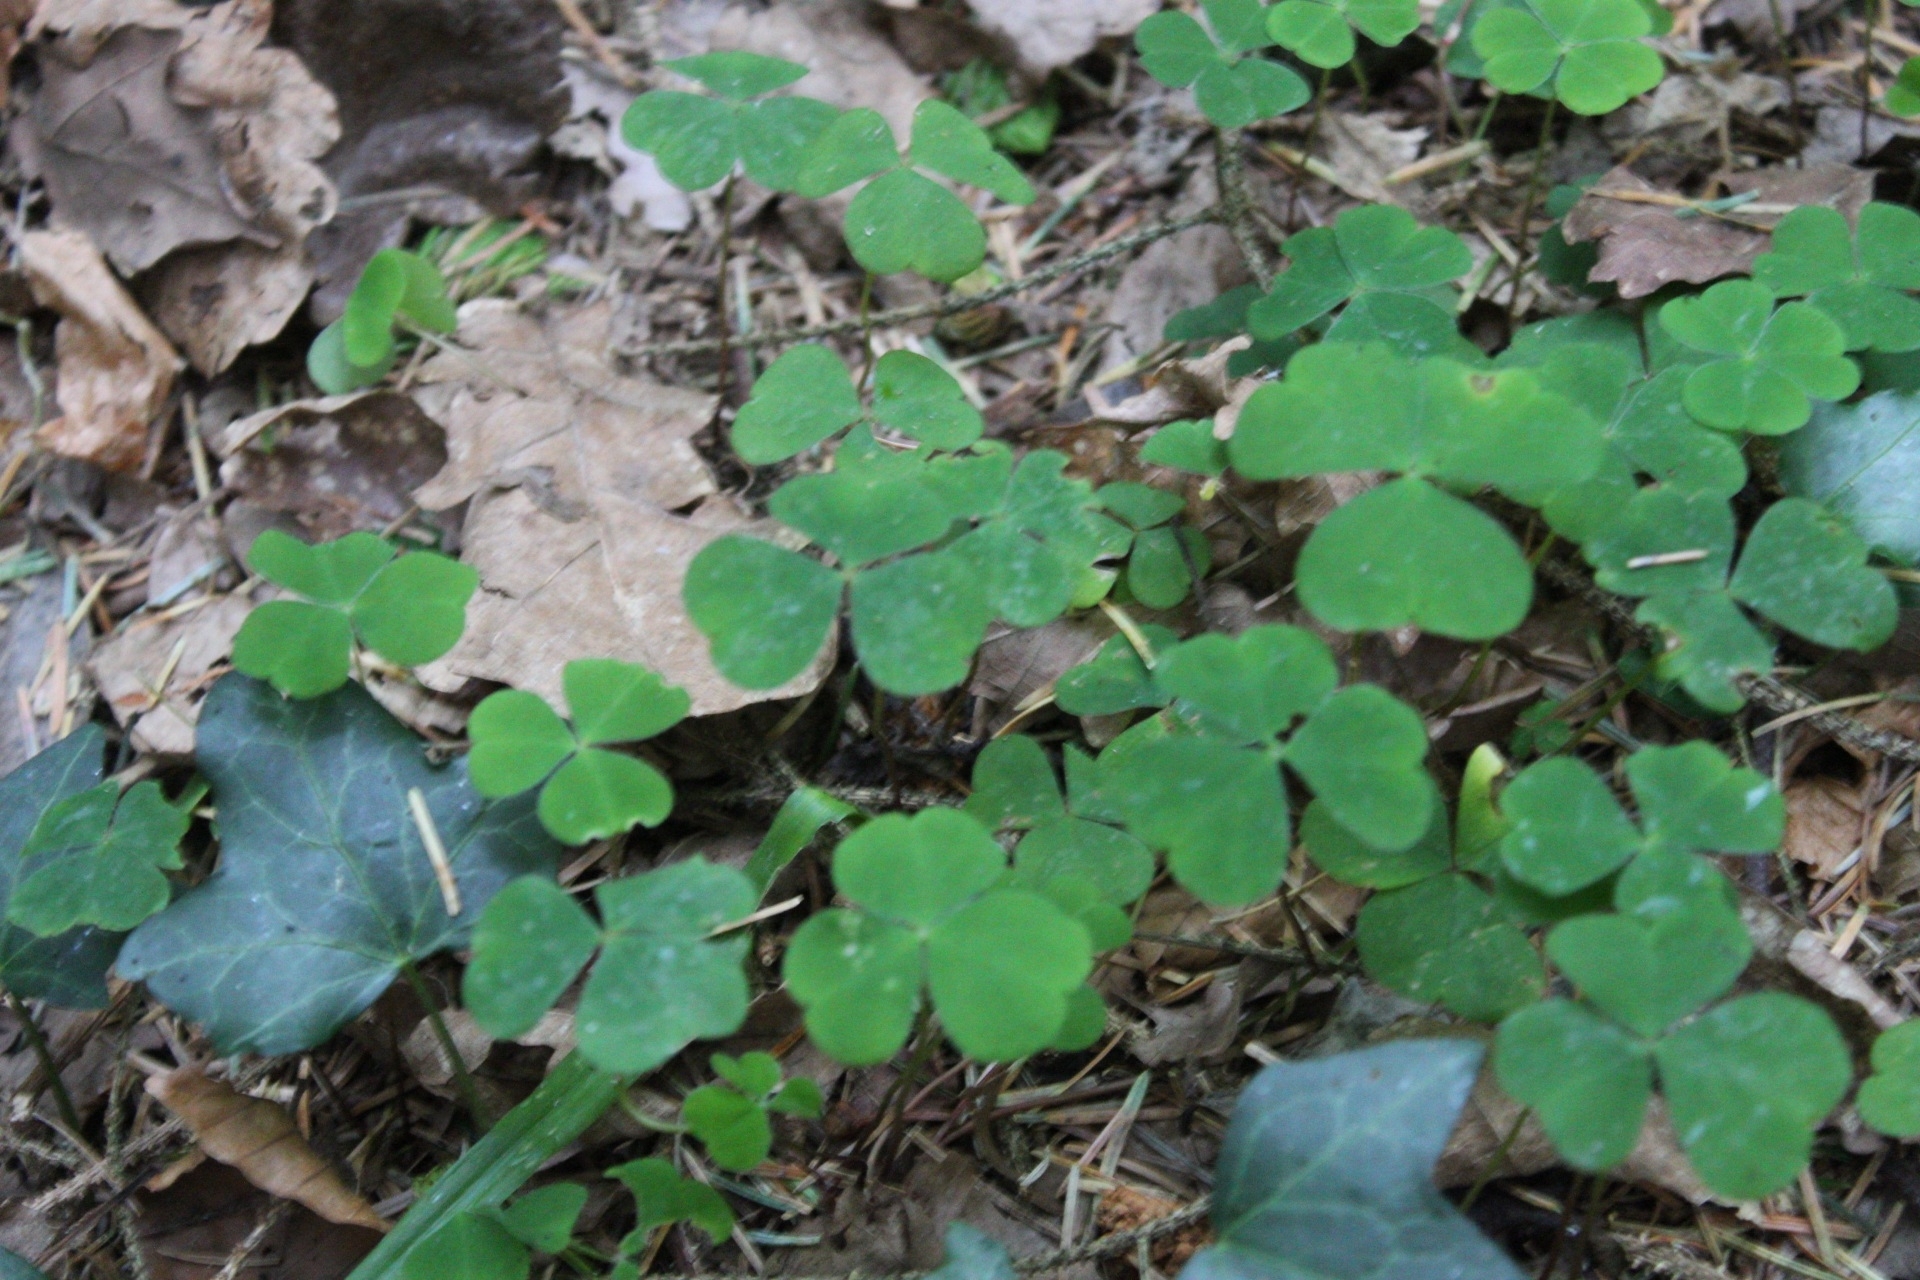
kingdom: Plantae
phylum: Tracheophyta
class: Magnoliopsida
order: Oxalidales
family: Oxalidaceae
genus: Oxalis
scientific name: Oxalis acetosella
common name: Wood-sorrel
